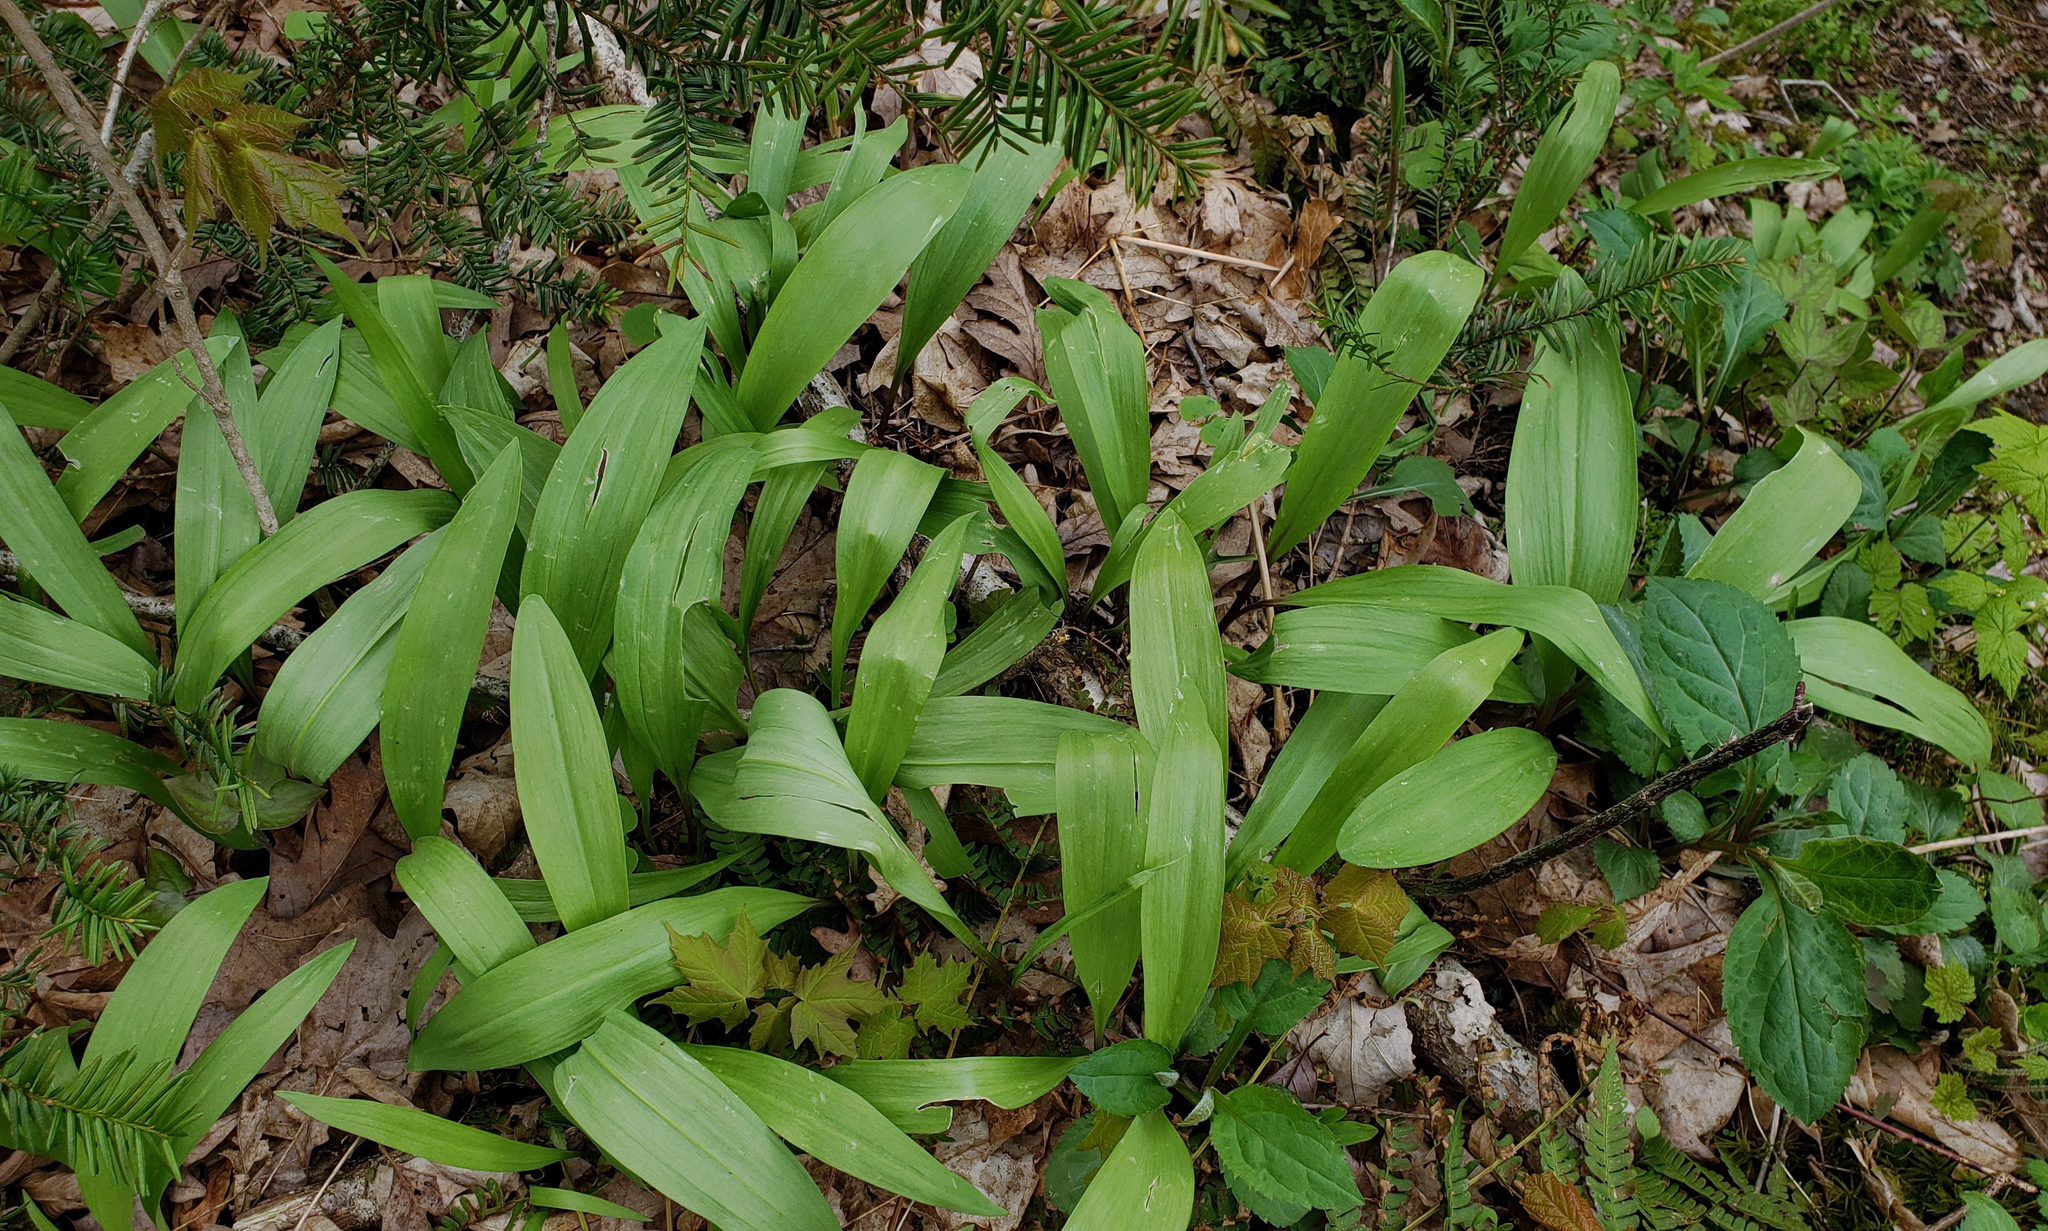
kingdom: Plantae
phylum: Tracheophyta
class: Liliopsida
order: Asparagales
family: Amaryllidaceae
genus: Allium
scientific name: Allium tricoccum
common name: Ramp
